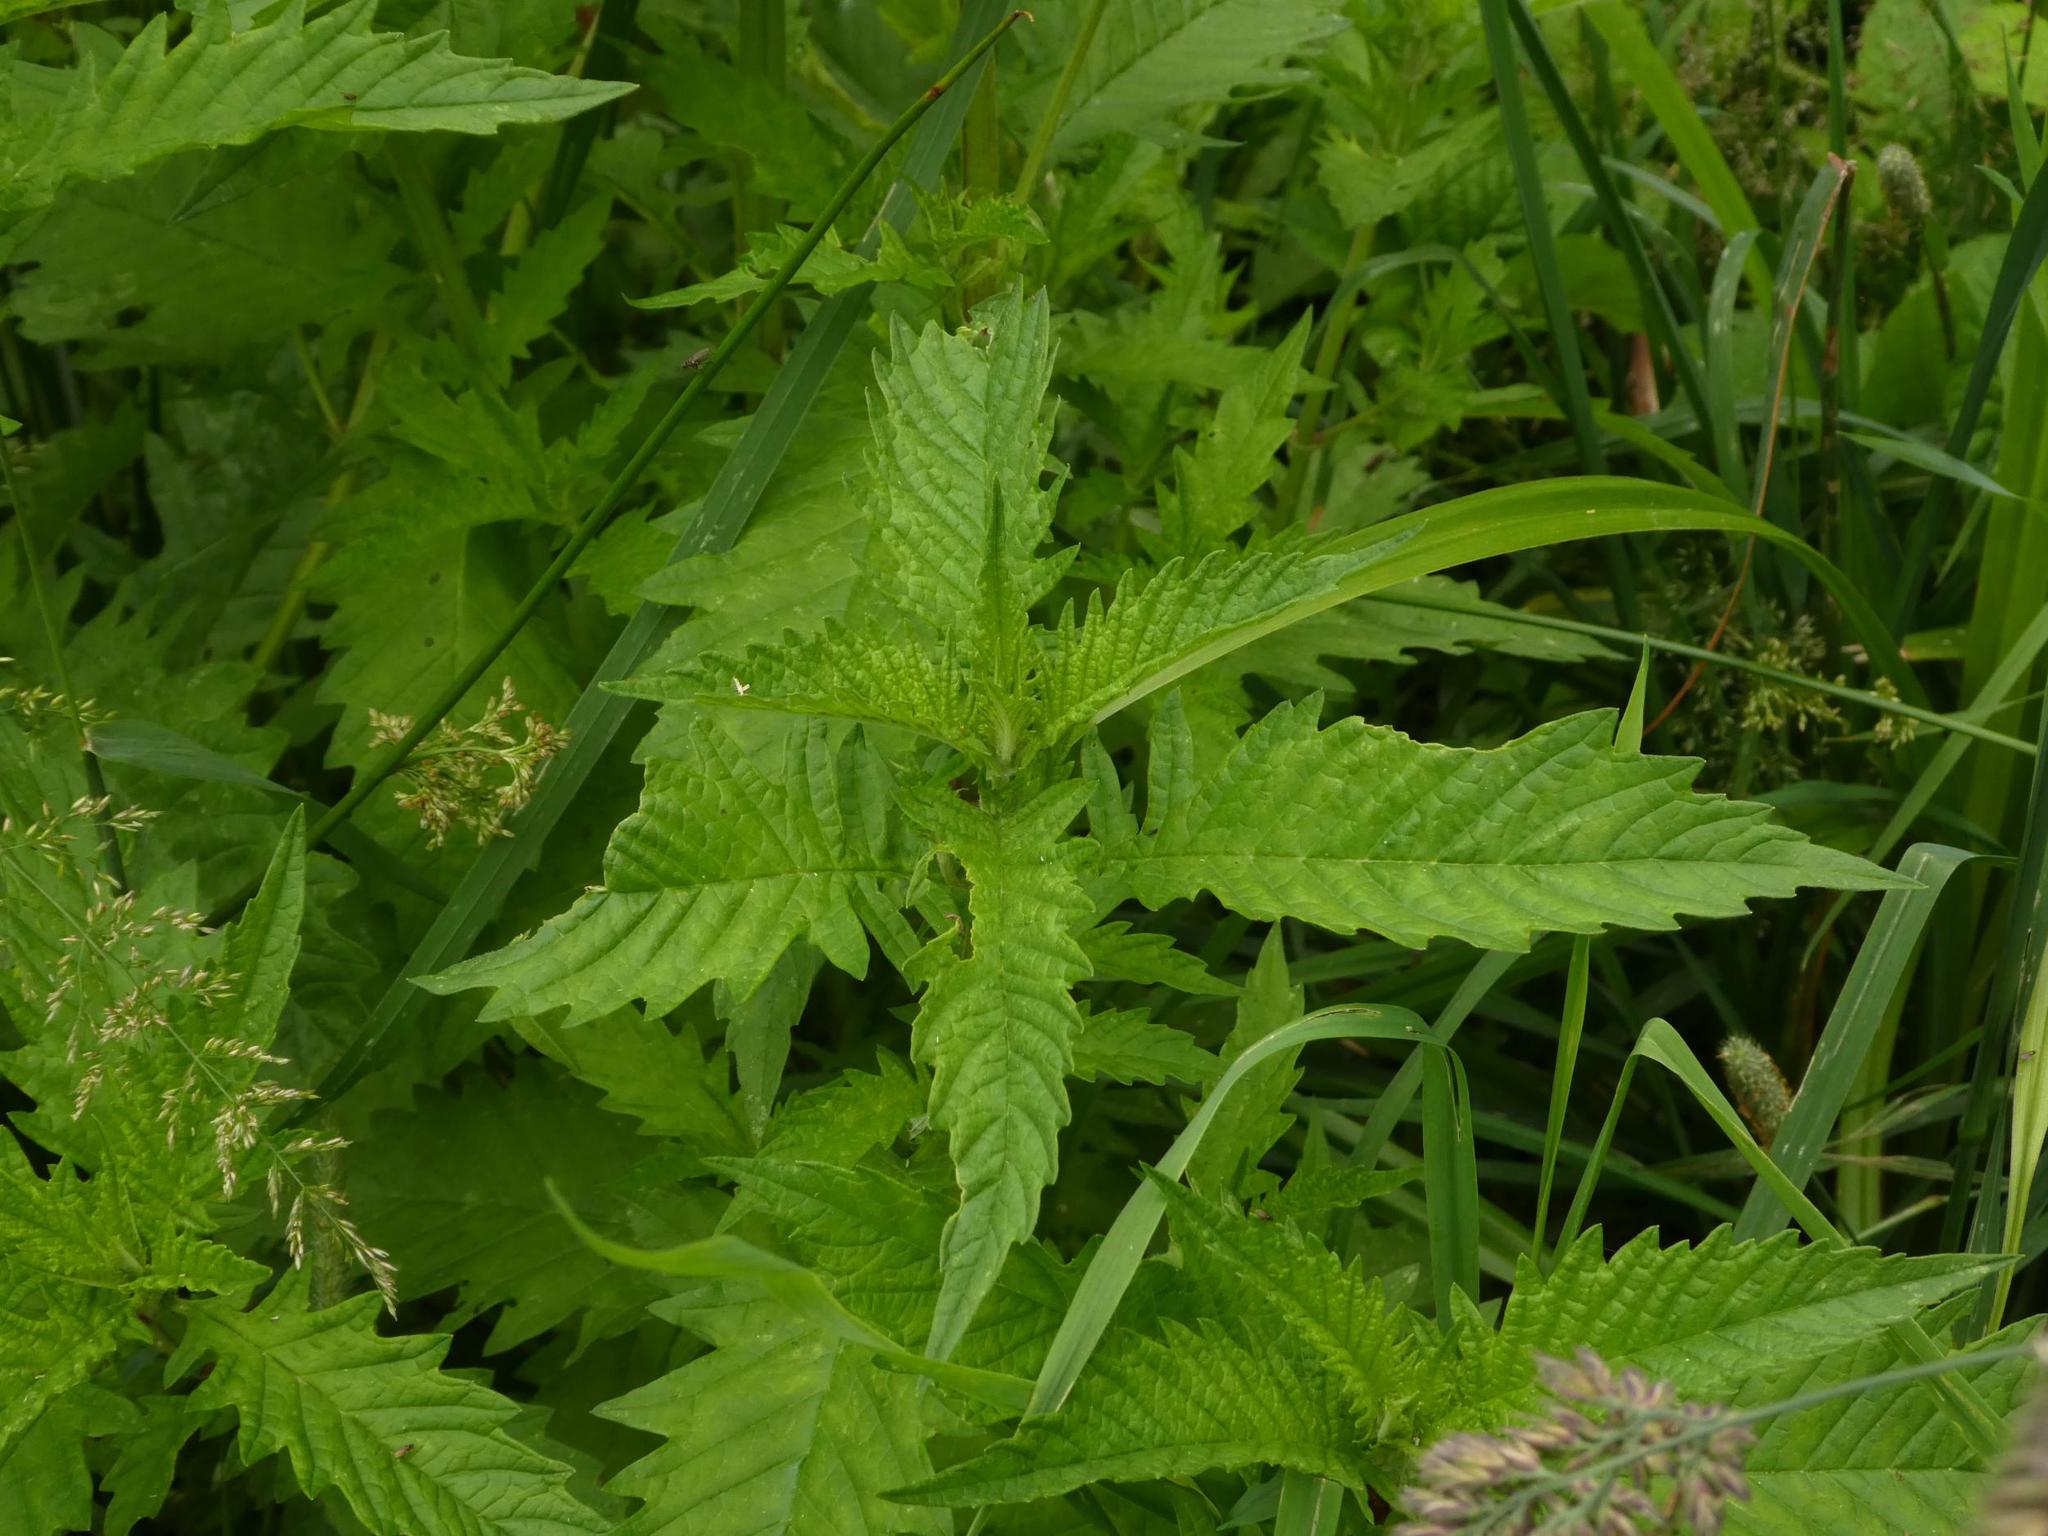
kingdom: Plantae
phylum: Tracheophyta
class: Magnoliopsida
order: Lamiales
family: Lamiaceae
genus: Lycopus
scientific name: Lycopus europaeus
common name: European bugleweed
